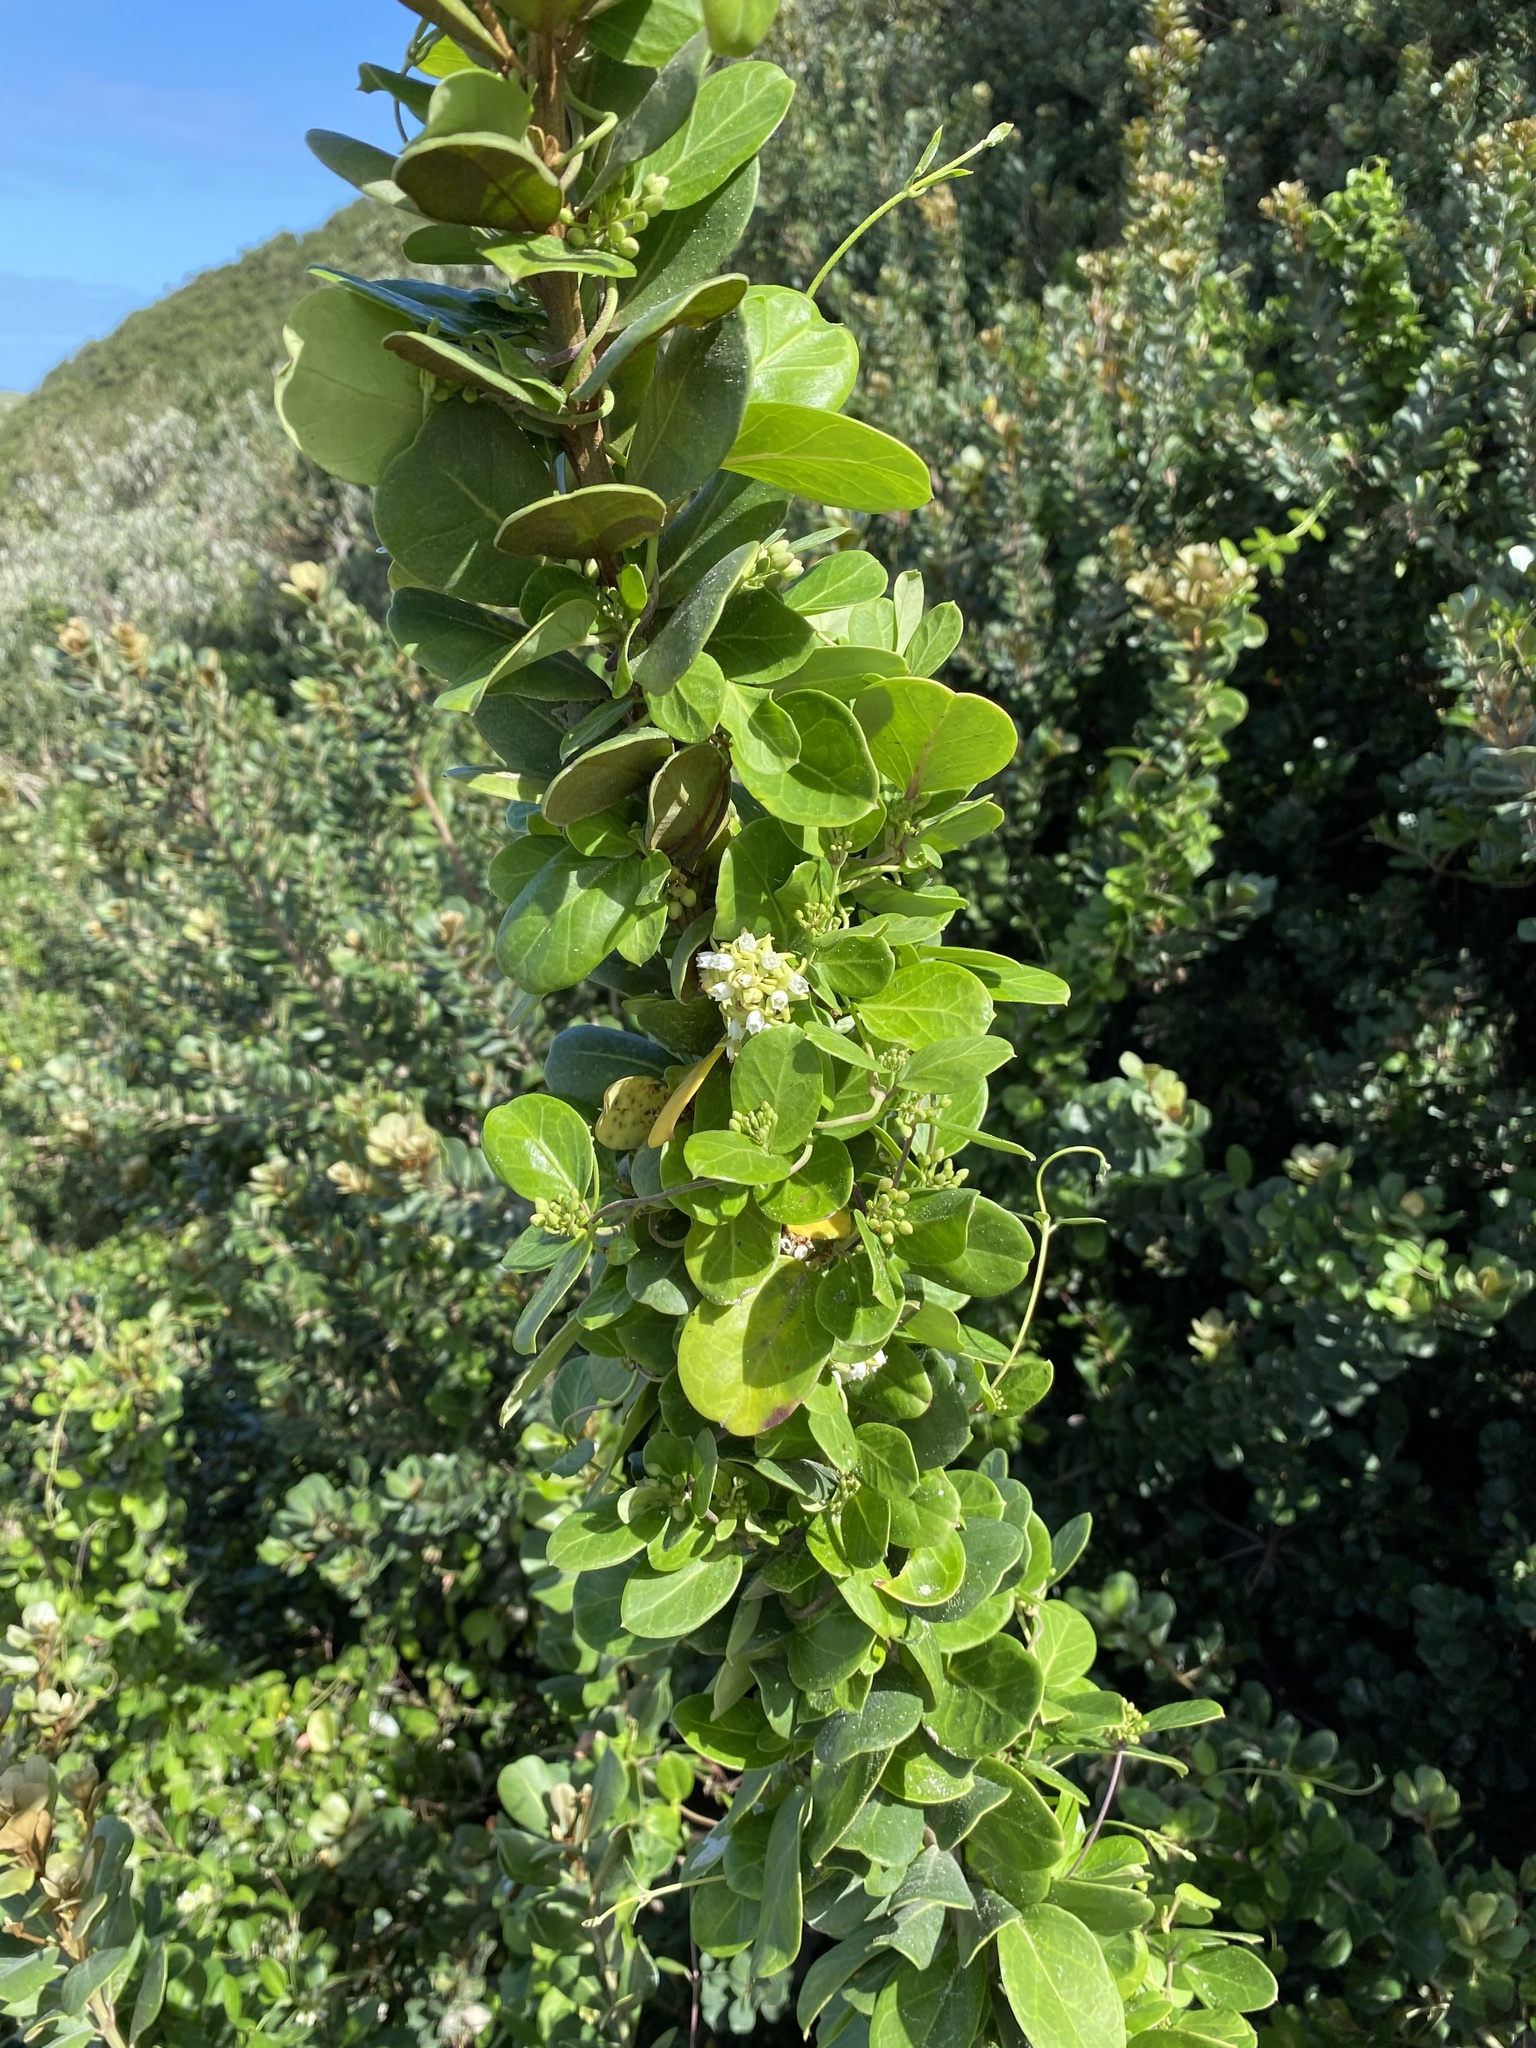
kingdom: Plantae
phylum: Tracheophyta
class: Magnoliopsida
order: Gentianales
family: Apocynaceae
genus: Cynanchum
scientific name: Cynanchum natalitium
